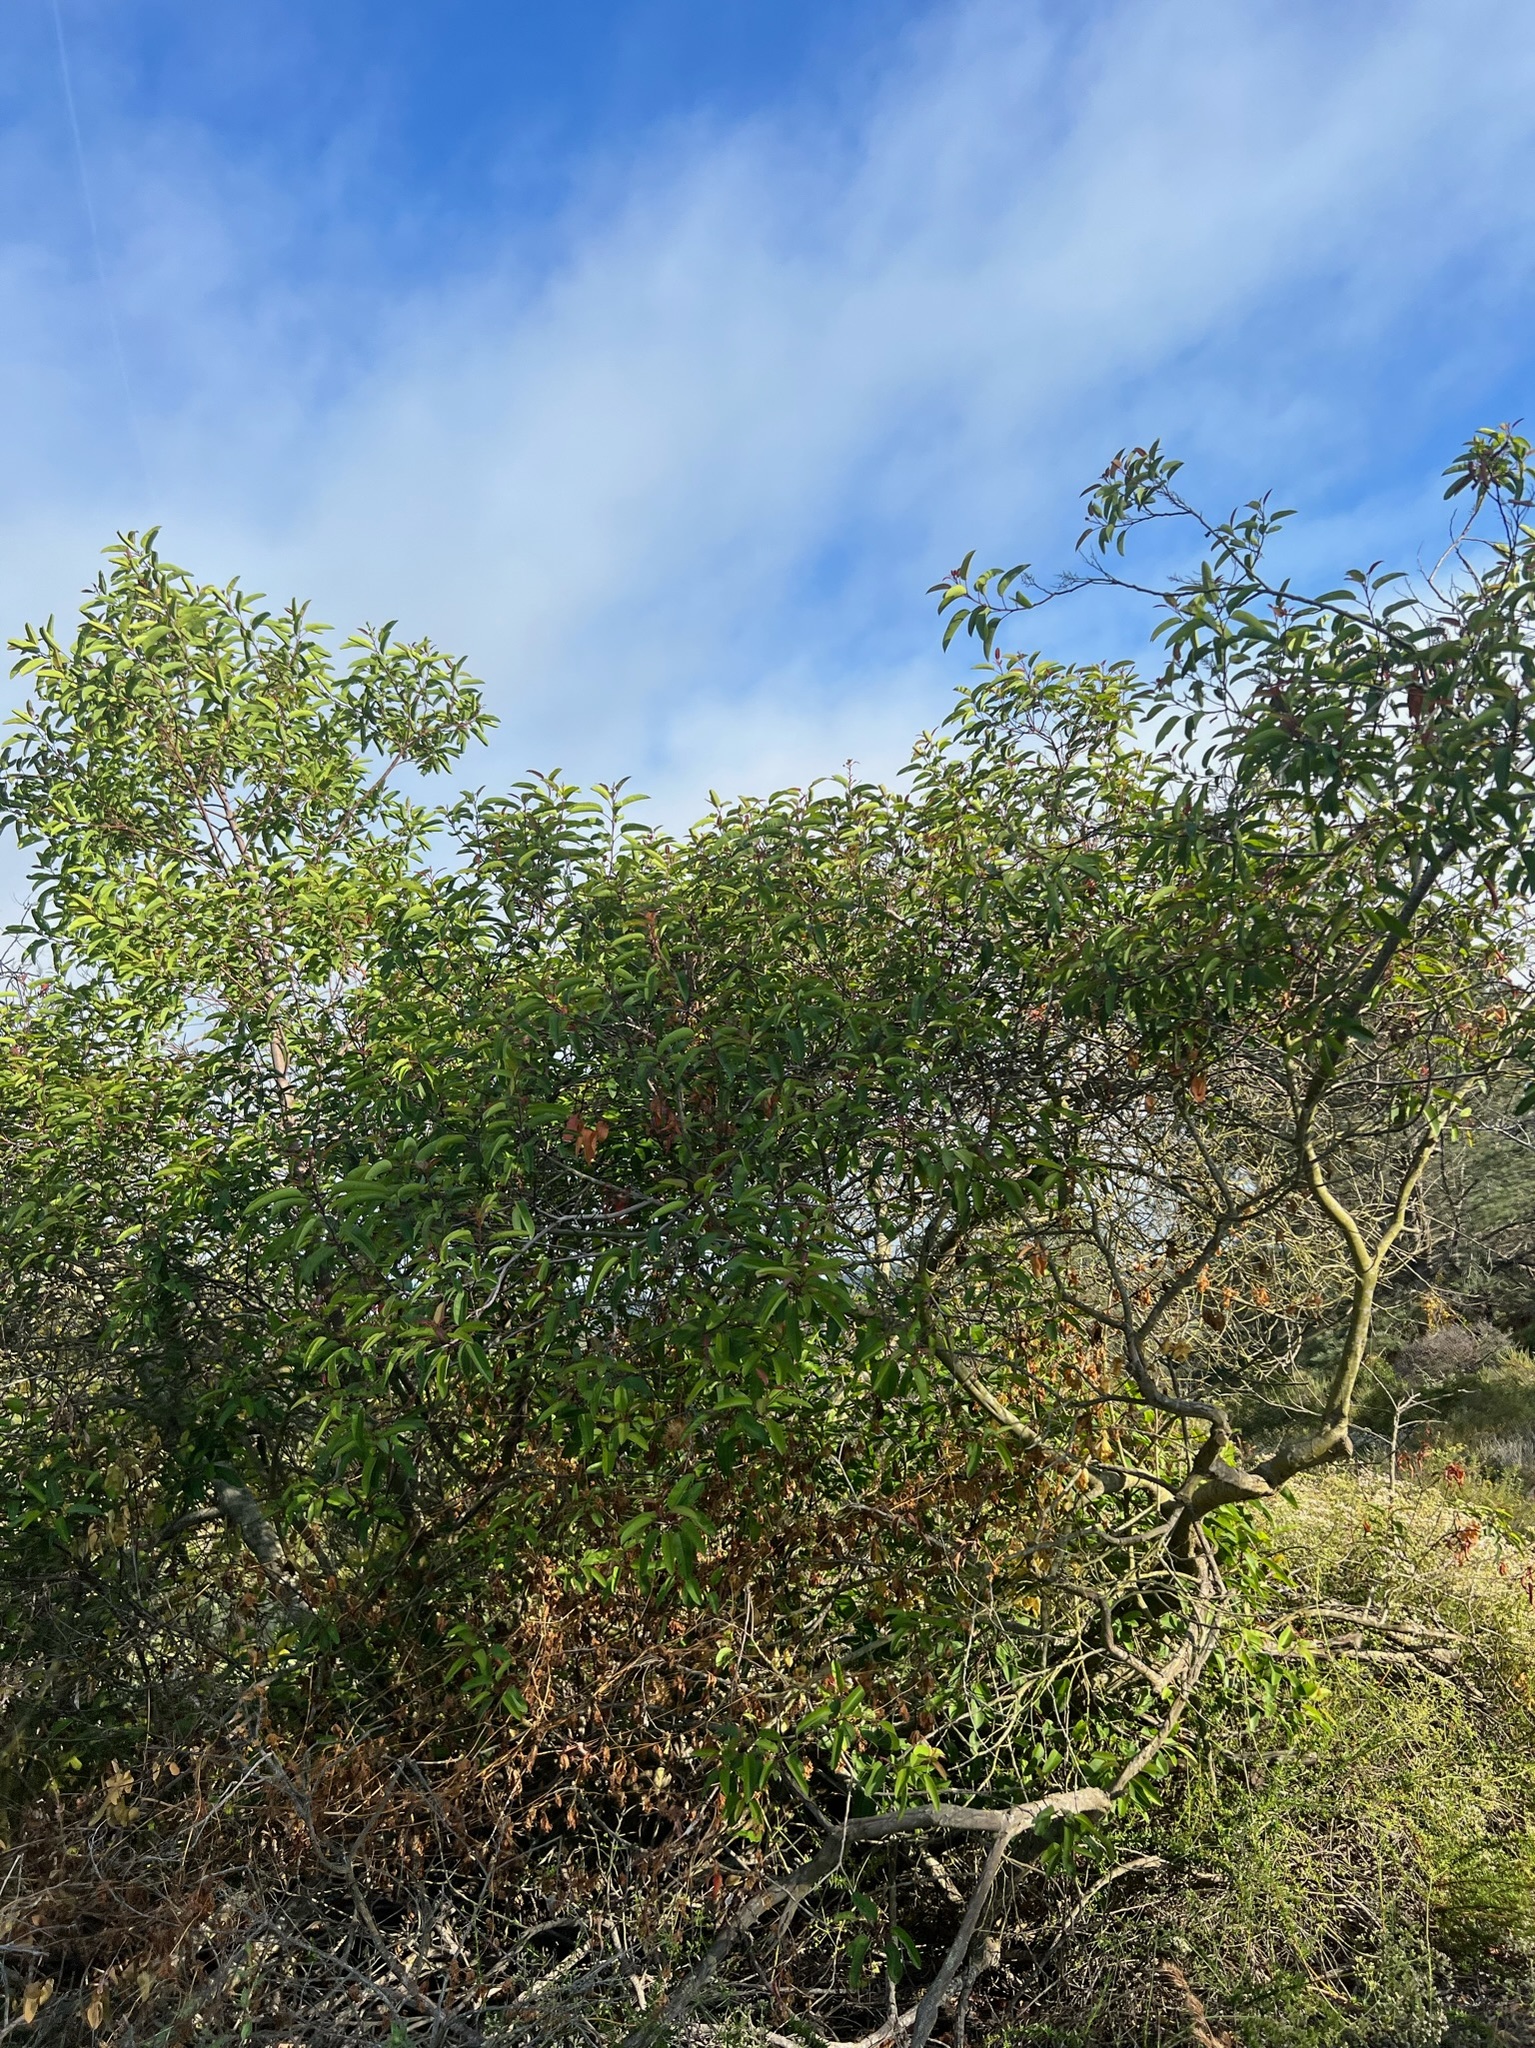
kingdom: Plantae
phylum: Tracheophyta
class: Magnoliopsida
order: Sapindales
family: Anacardiaceae
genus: Malosma
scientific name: Malosma laurina
